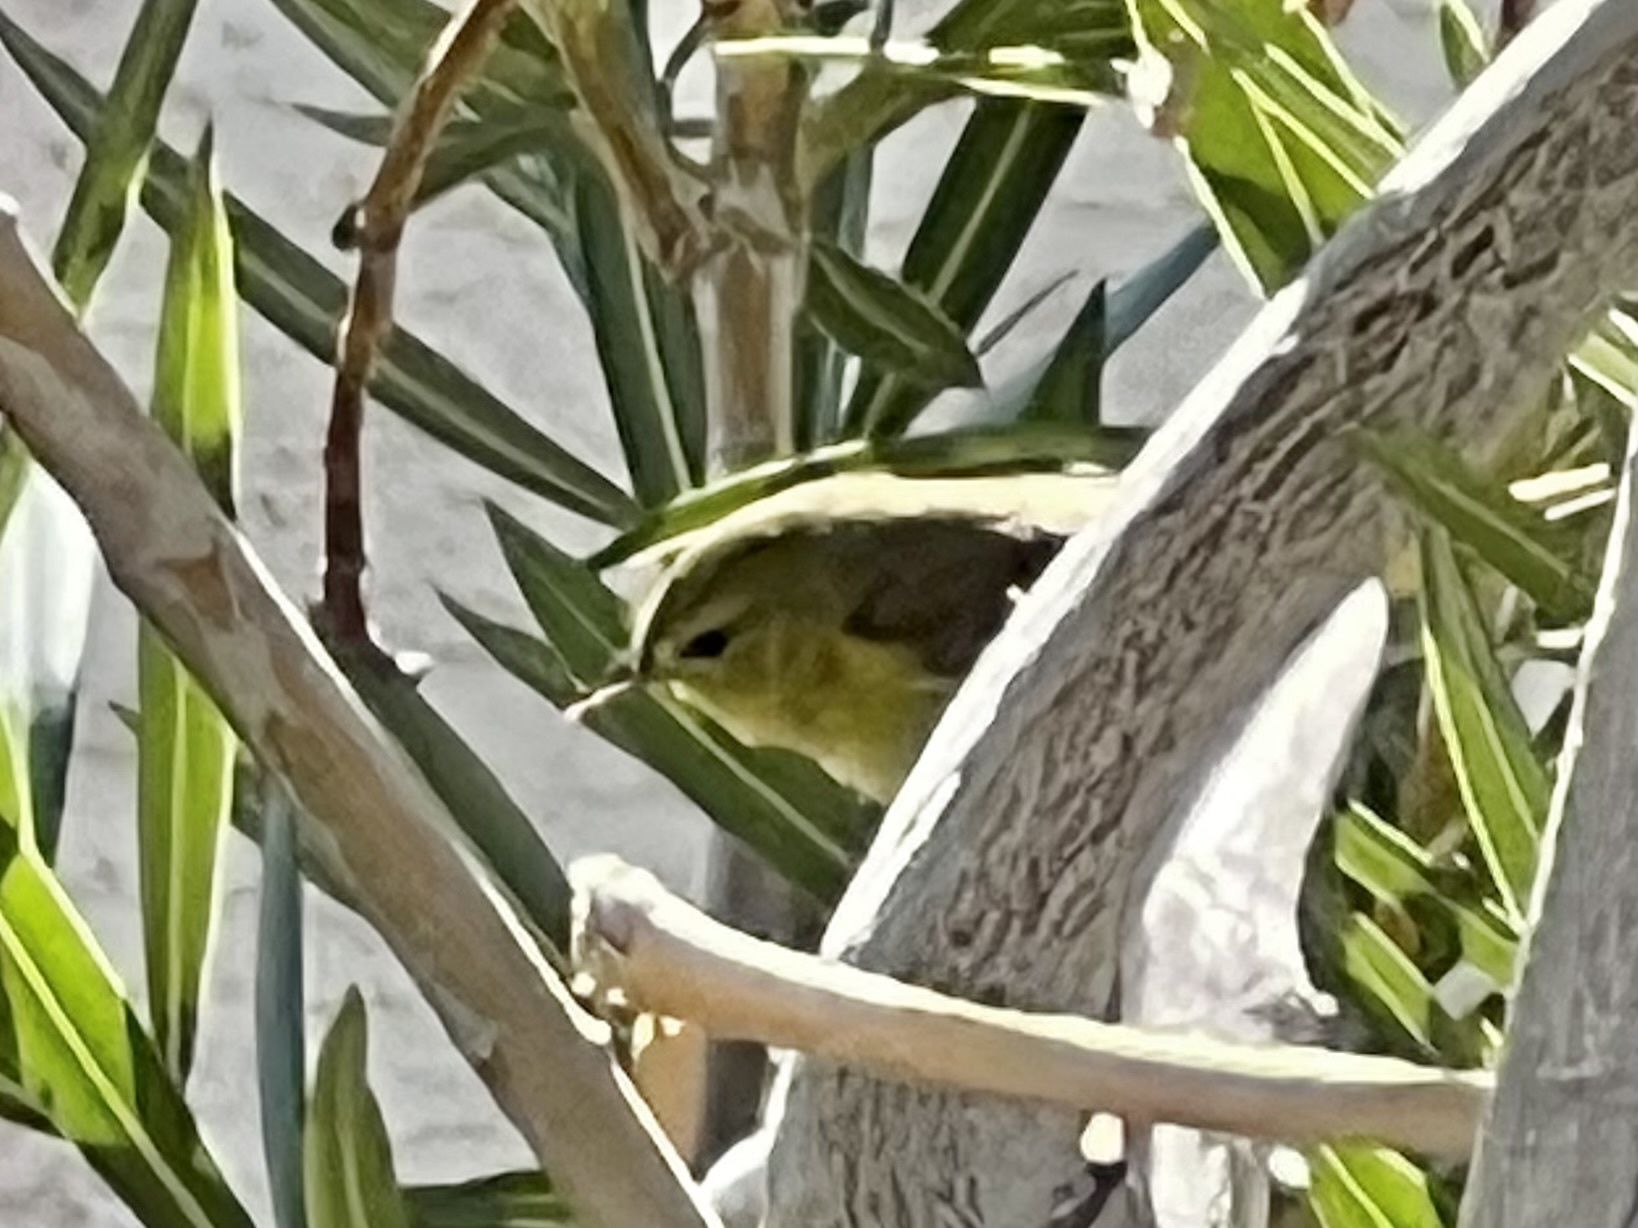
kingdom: Animalia
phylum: Chordata
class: Aves
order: Passeriformes
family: Parulidae
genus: Leiothlypis
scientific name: Leiothlypis celata
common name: Orange-crowned warbler
